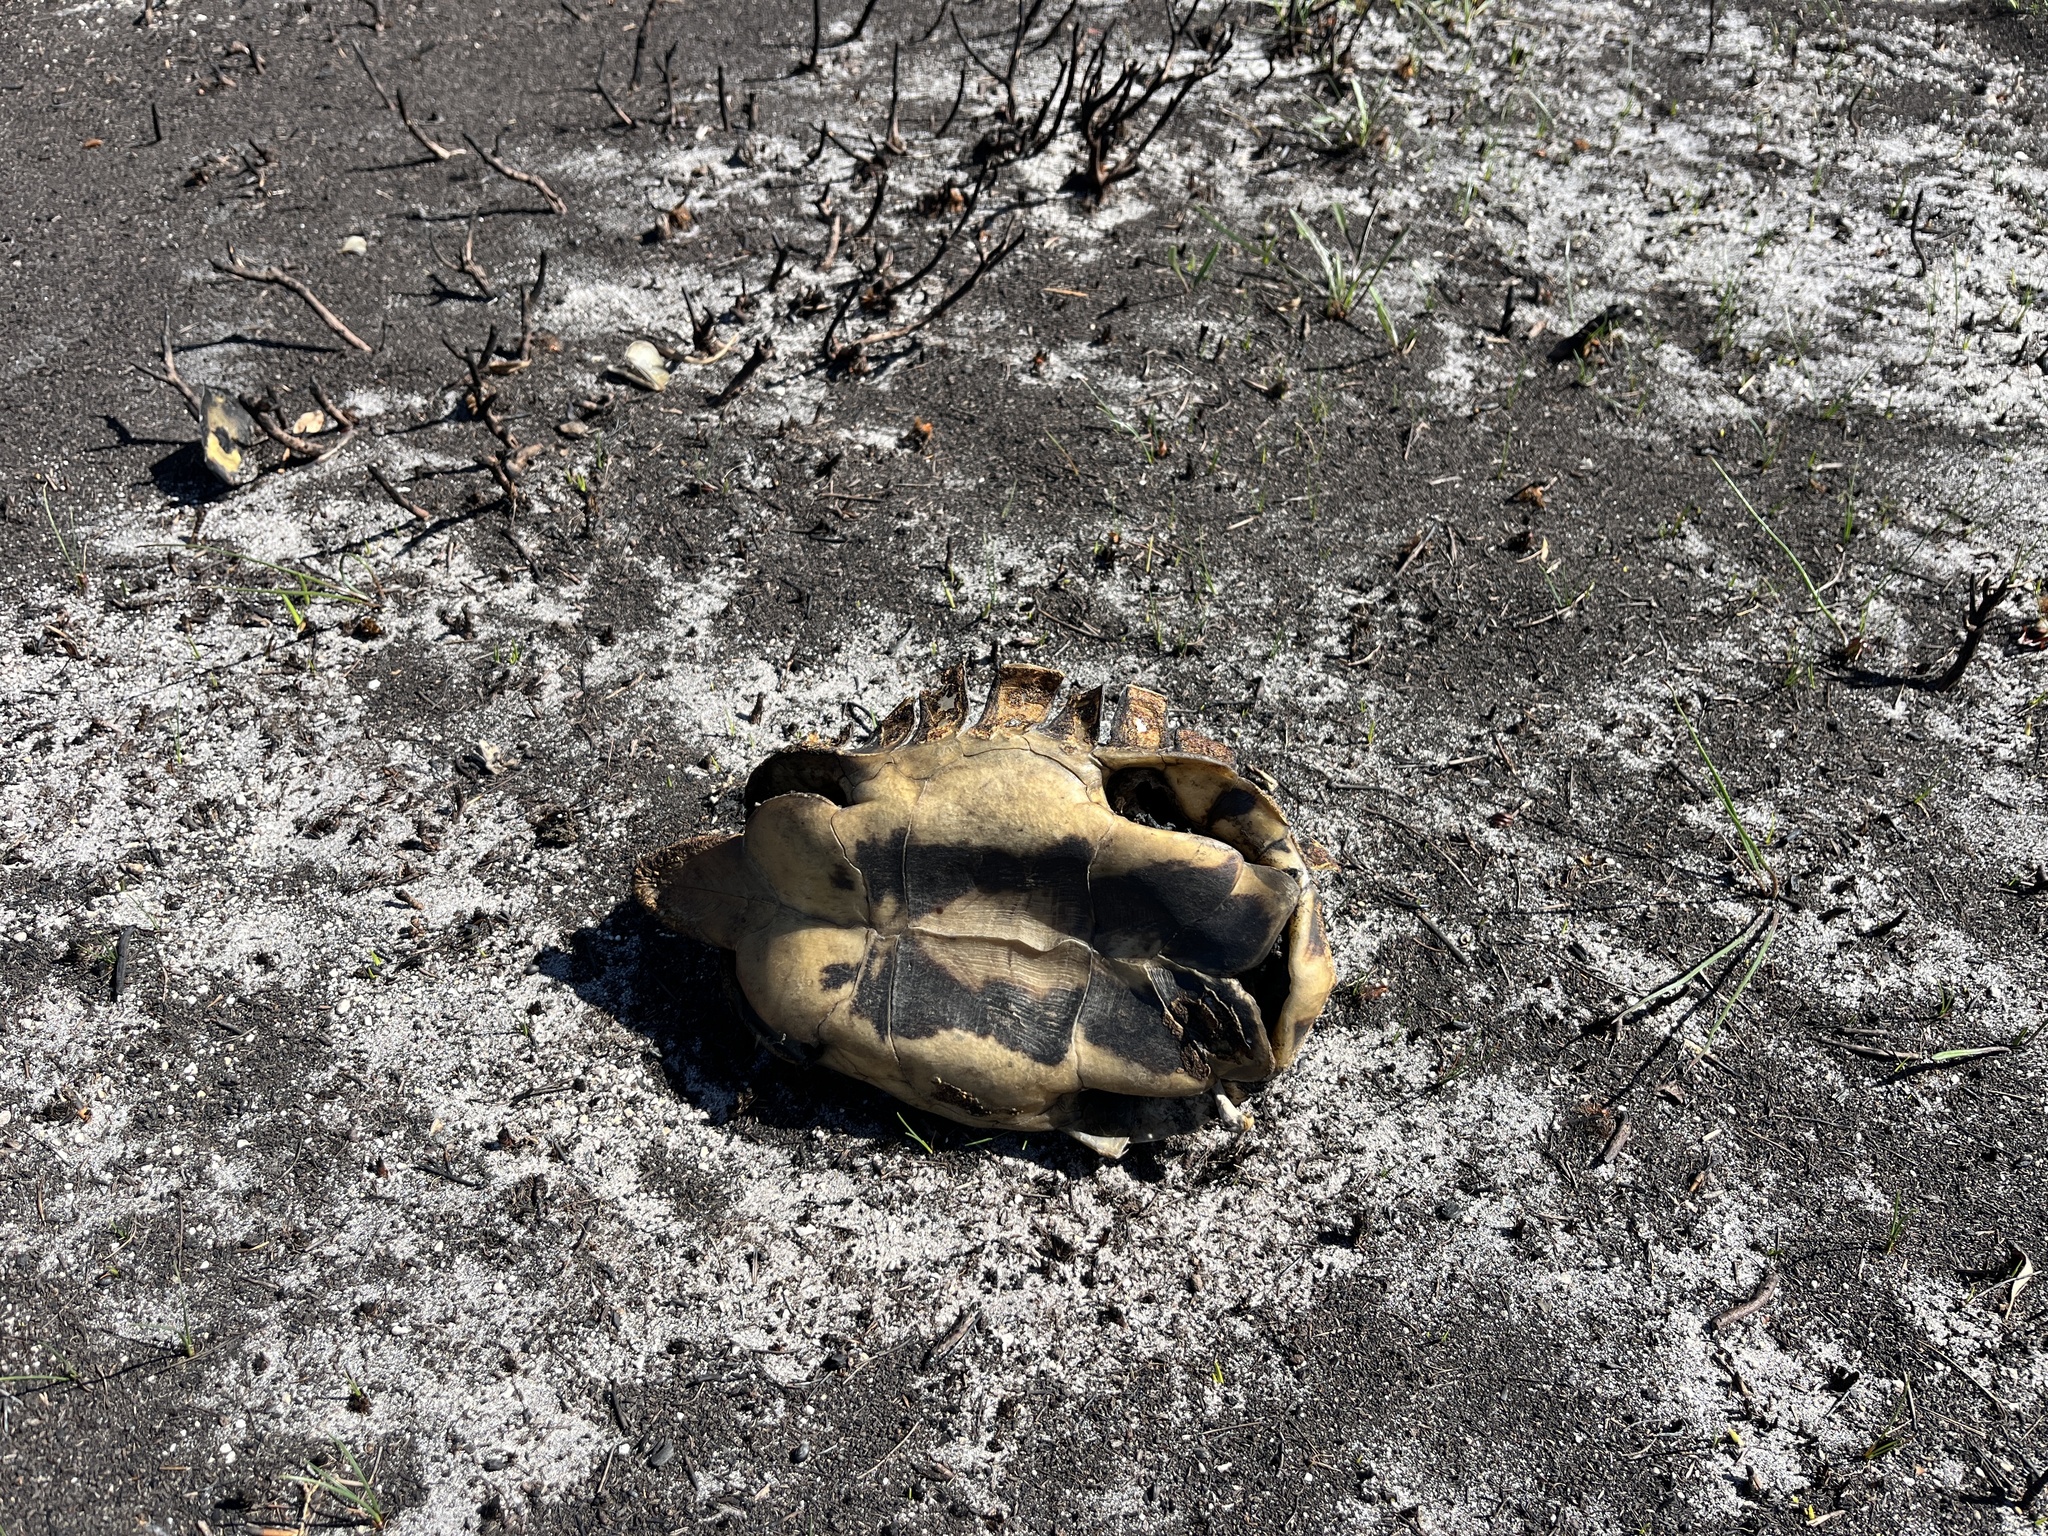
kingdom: Animalia
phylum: Chordata
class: Testudines
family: Testudinidae
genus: Chersina
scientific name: Chersina angulata
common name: South african bowsprit tortoise
